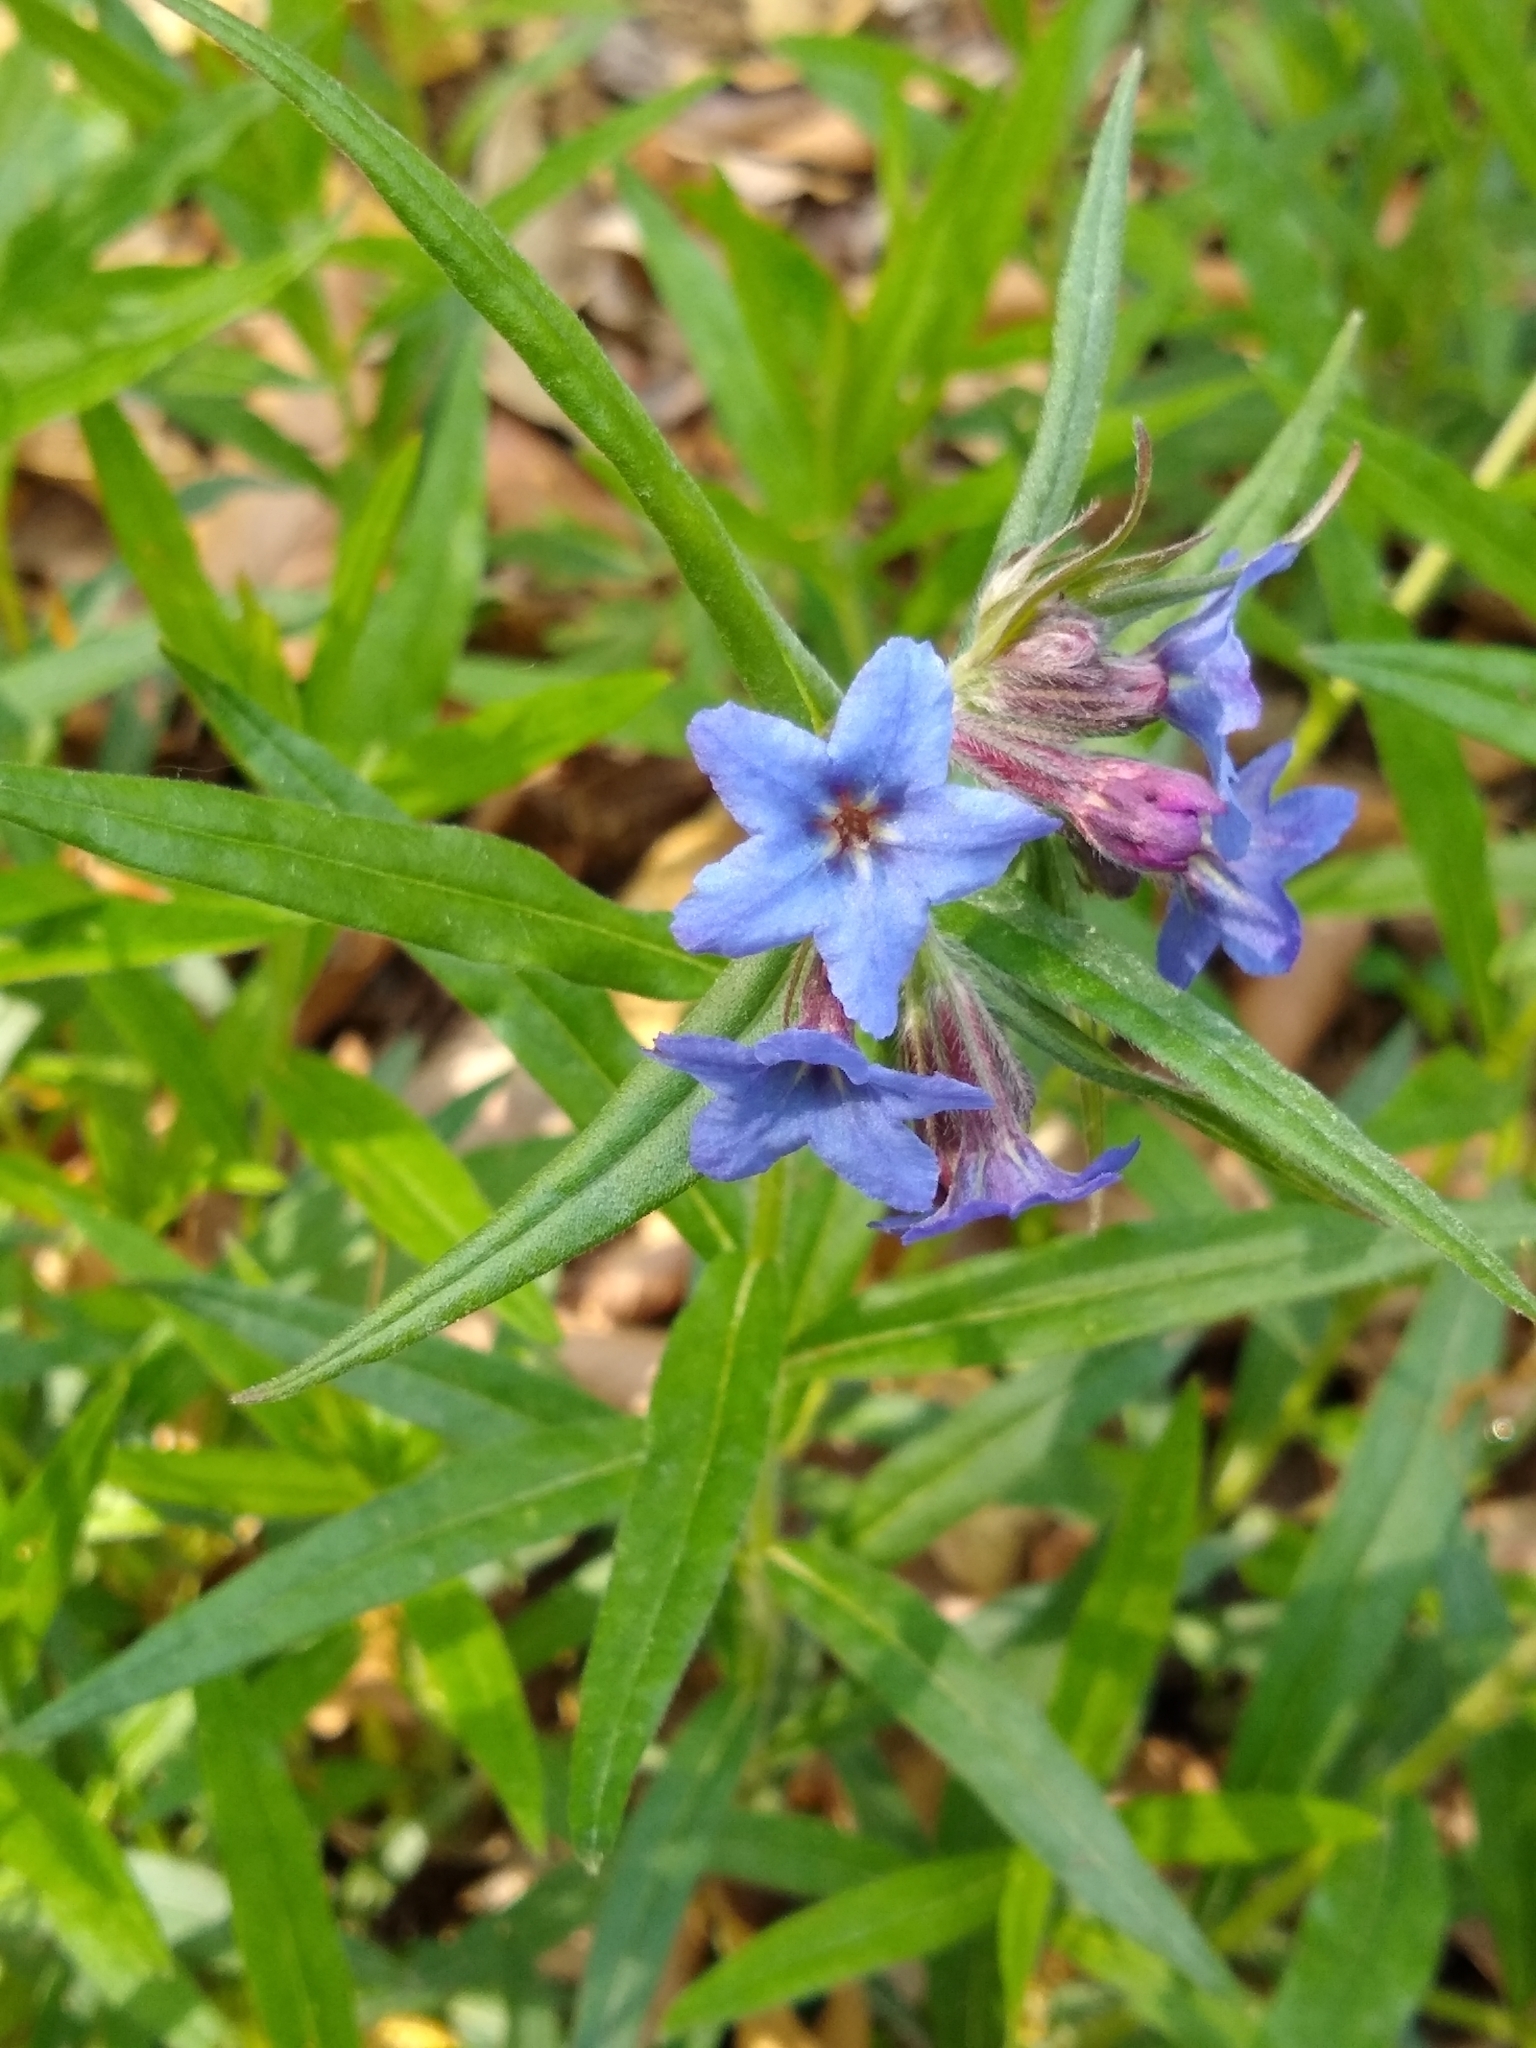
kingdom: Plantae
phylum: Tracheophyta
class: Magnoliopsida
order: Boraginales
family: Boraginaceae
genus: Aegonychon
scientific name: Aegonychon purpurocaeruleum
